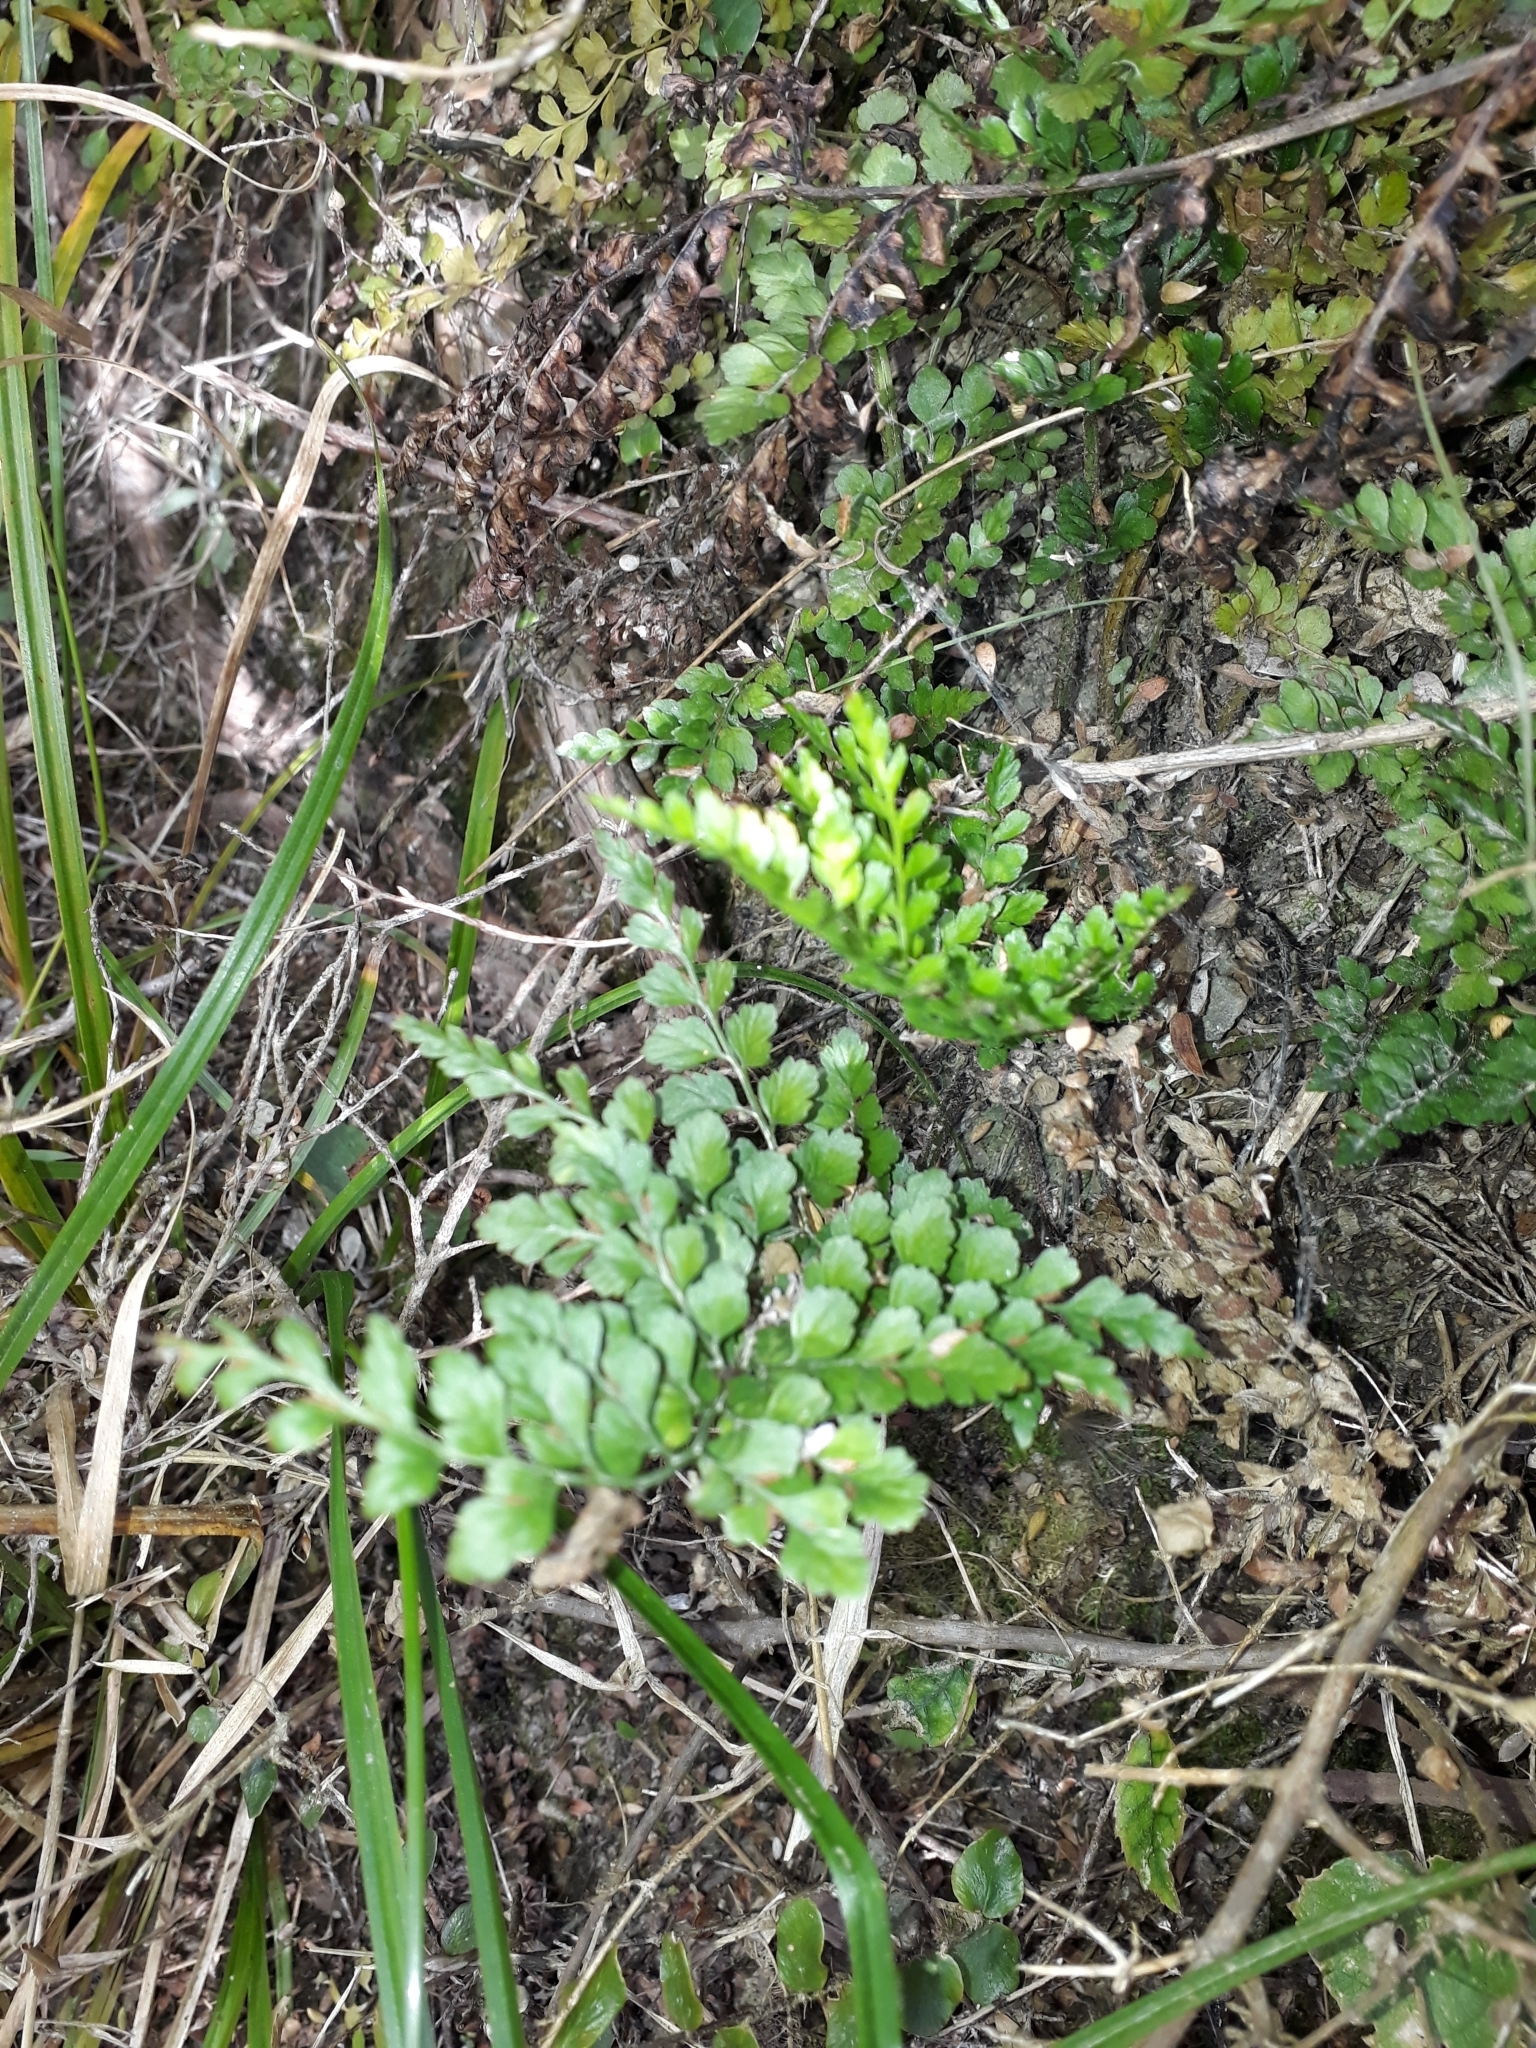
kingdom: Plantae
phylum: Tracheophyta
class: Polypodiopsida
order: Polypodiales
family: Aspleniaceae
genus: Asplenium
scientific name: Asplenium hookerianum
